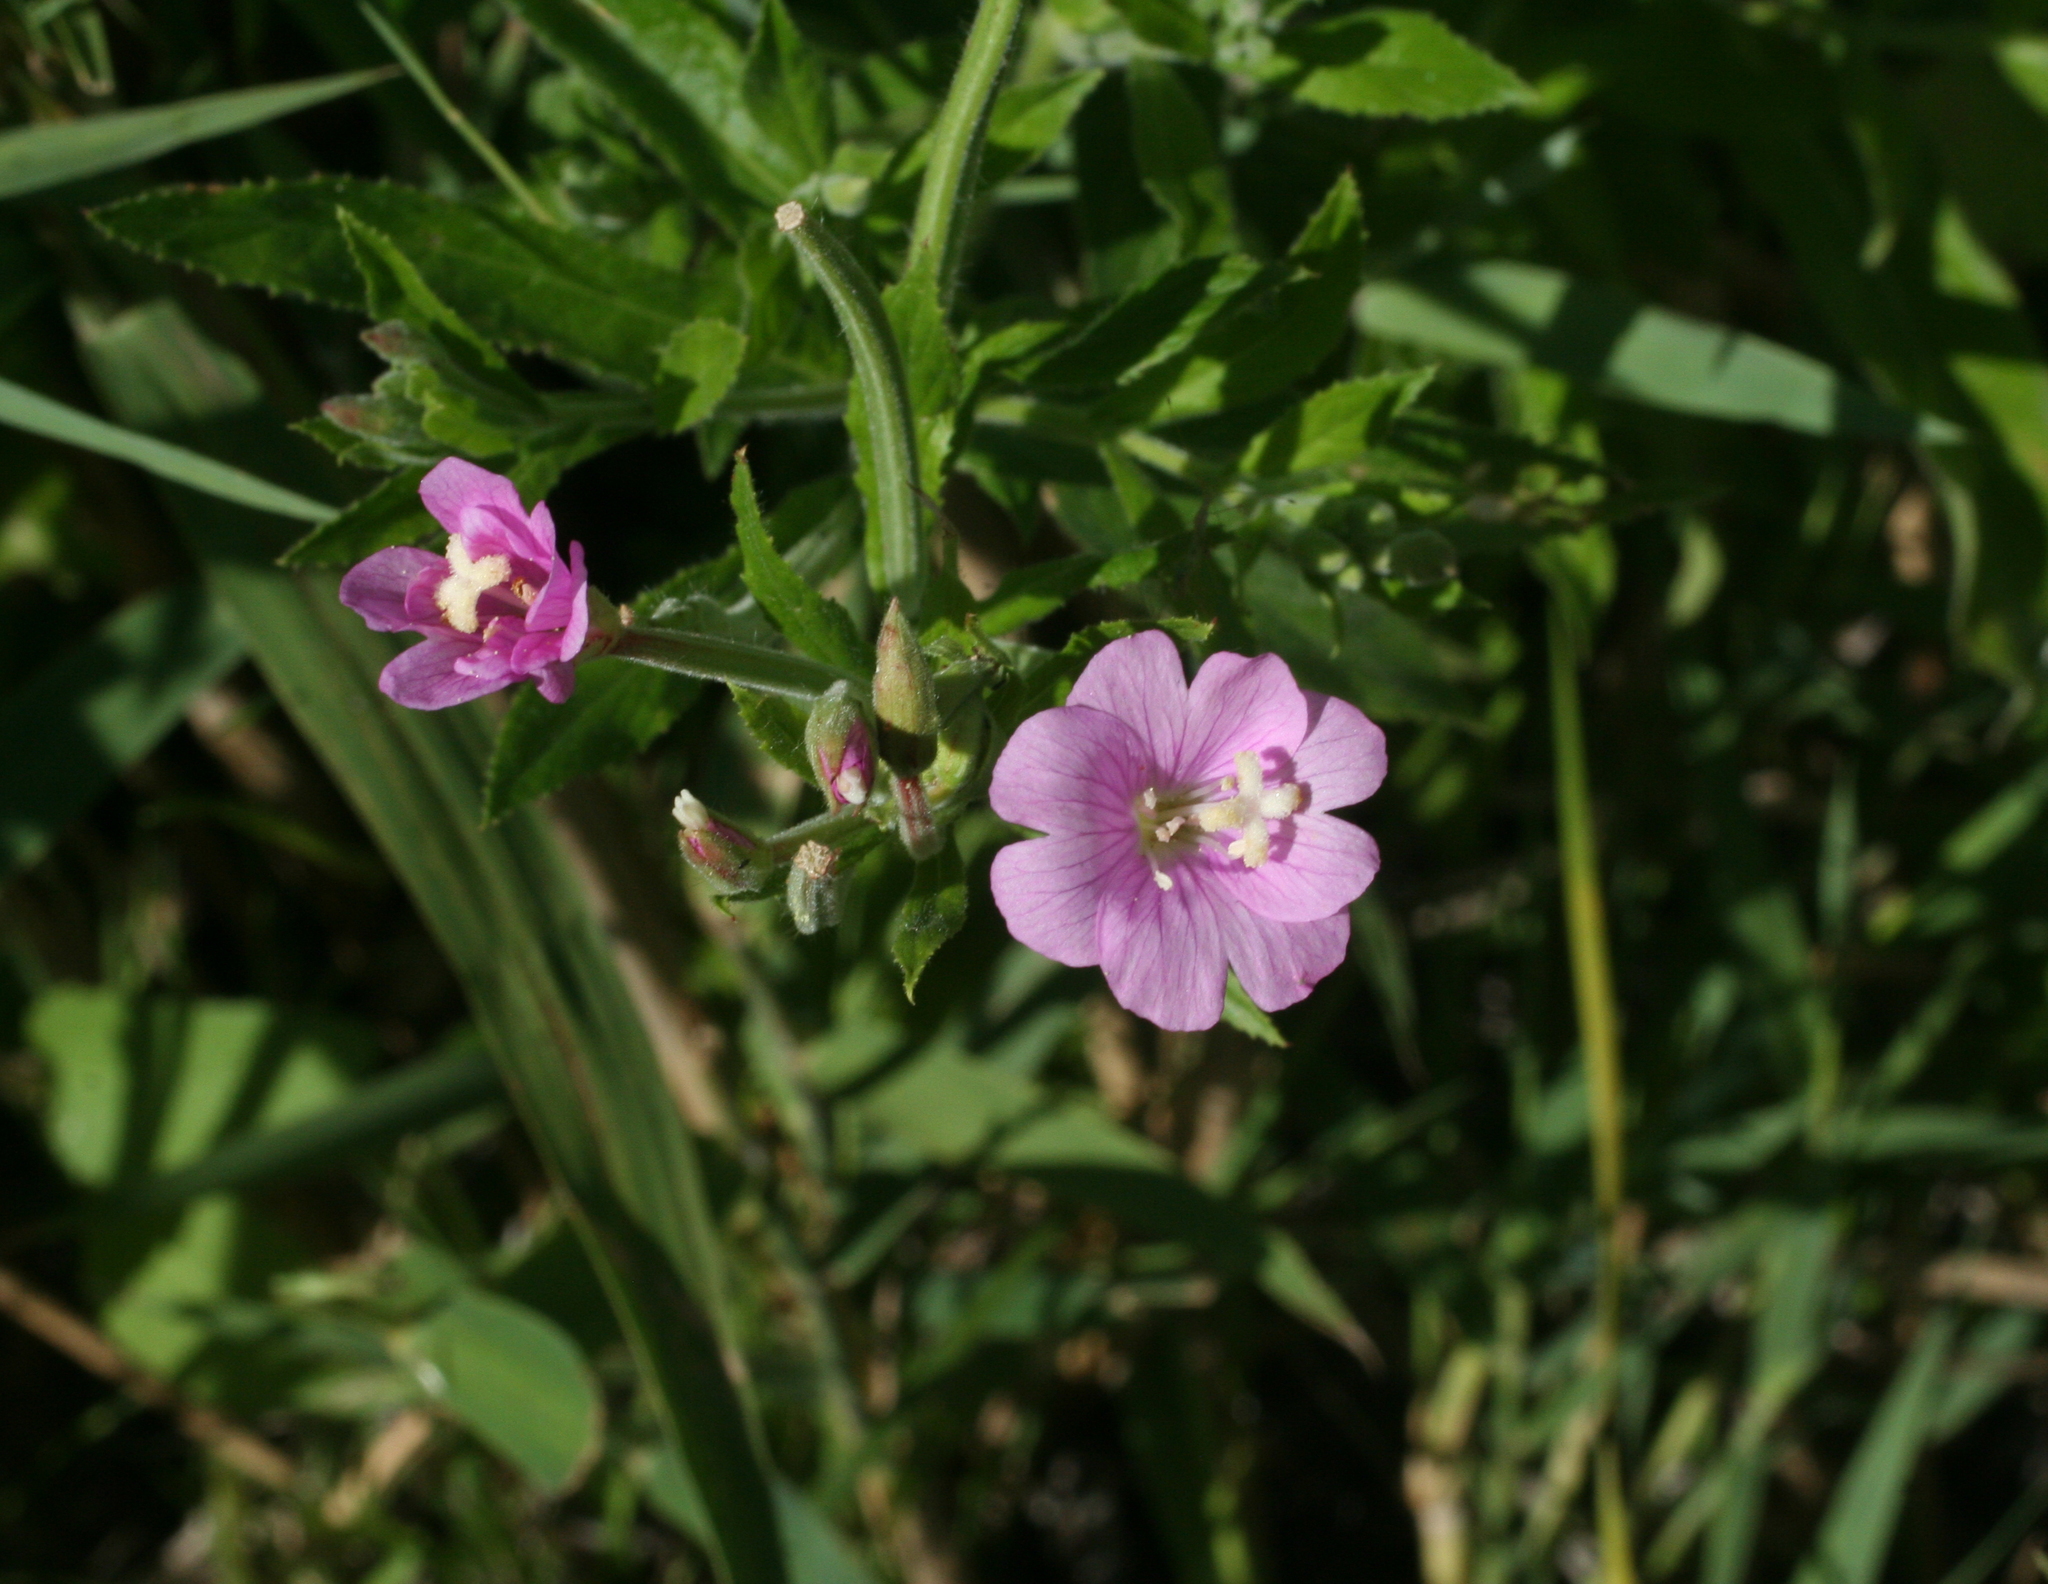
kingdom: Plantae
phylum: Tracheophyta
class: Magnoliopsida
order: Myrtales
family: Onagraceae
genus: Epilobium
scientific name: Epilobium hirsutum
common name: Great willowherb
